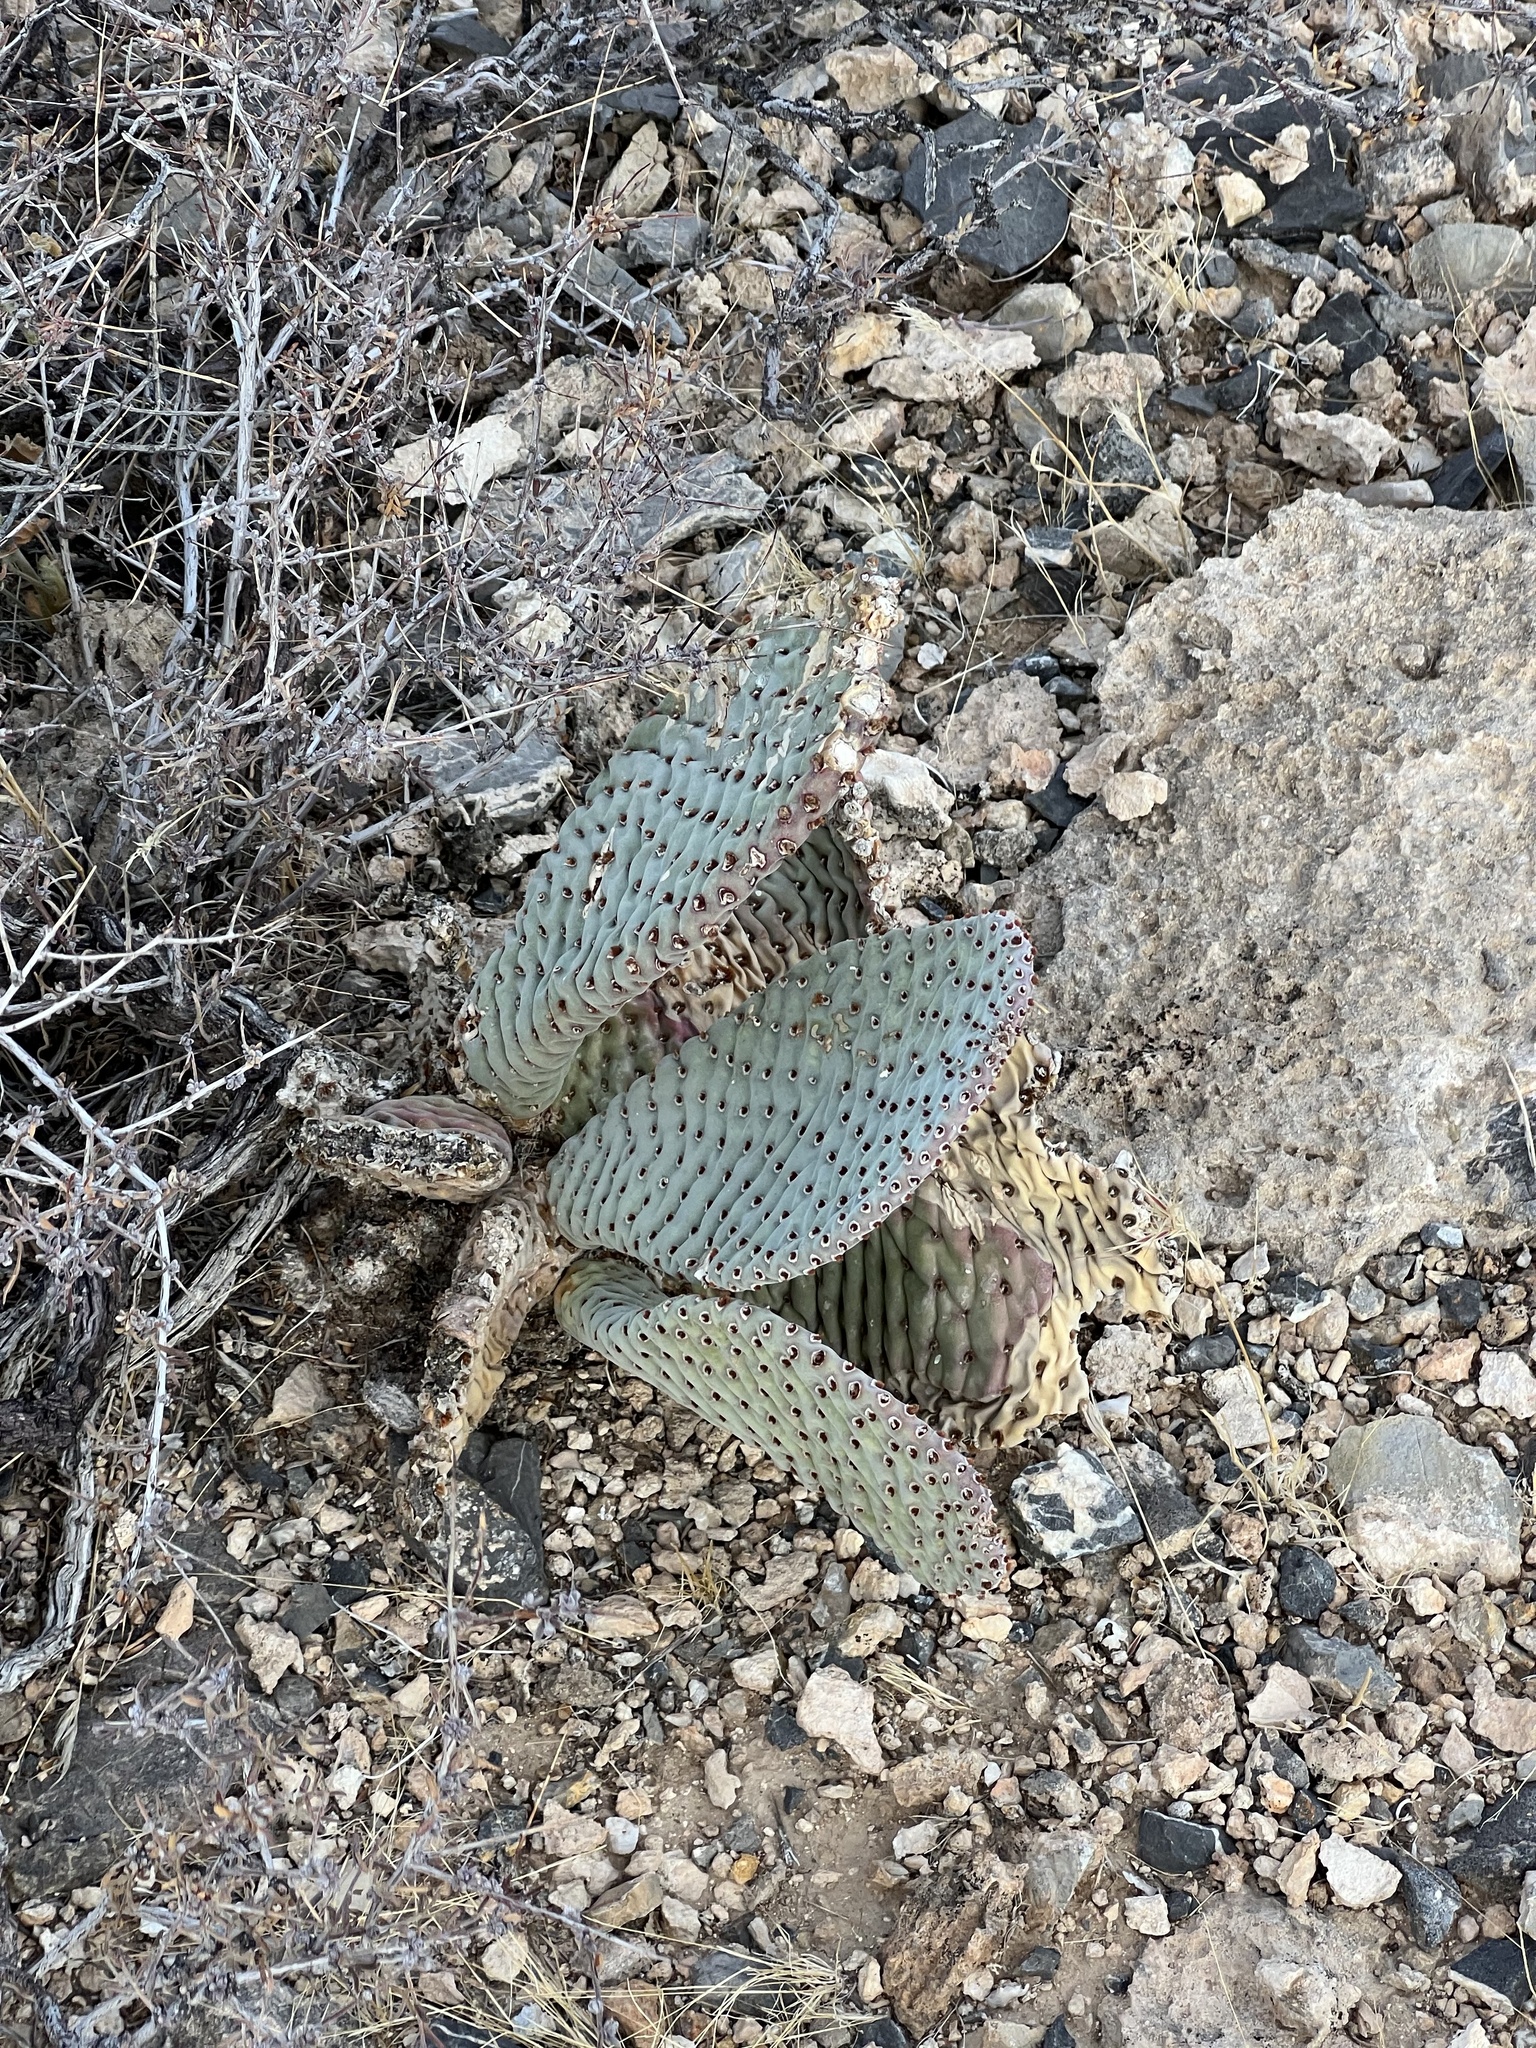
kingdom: Plantae
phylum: Tracheophyta
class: Magnoliopsida
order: Caryophyllales
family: Cactaceae
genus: Opuntia
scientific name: Opuntia basilaris
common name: Beavertail prickly-pear
